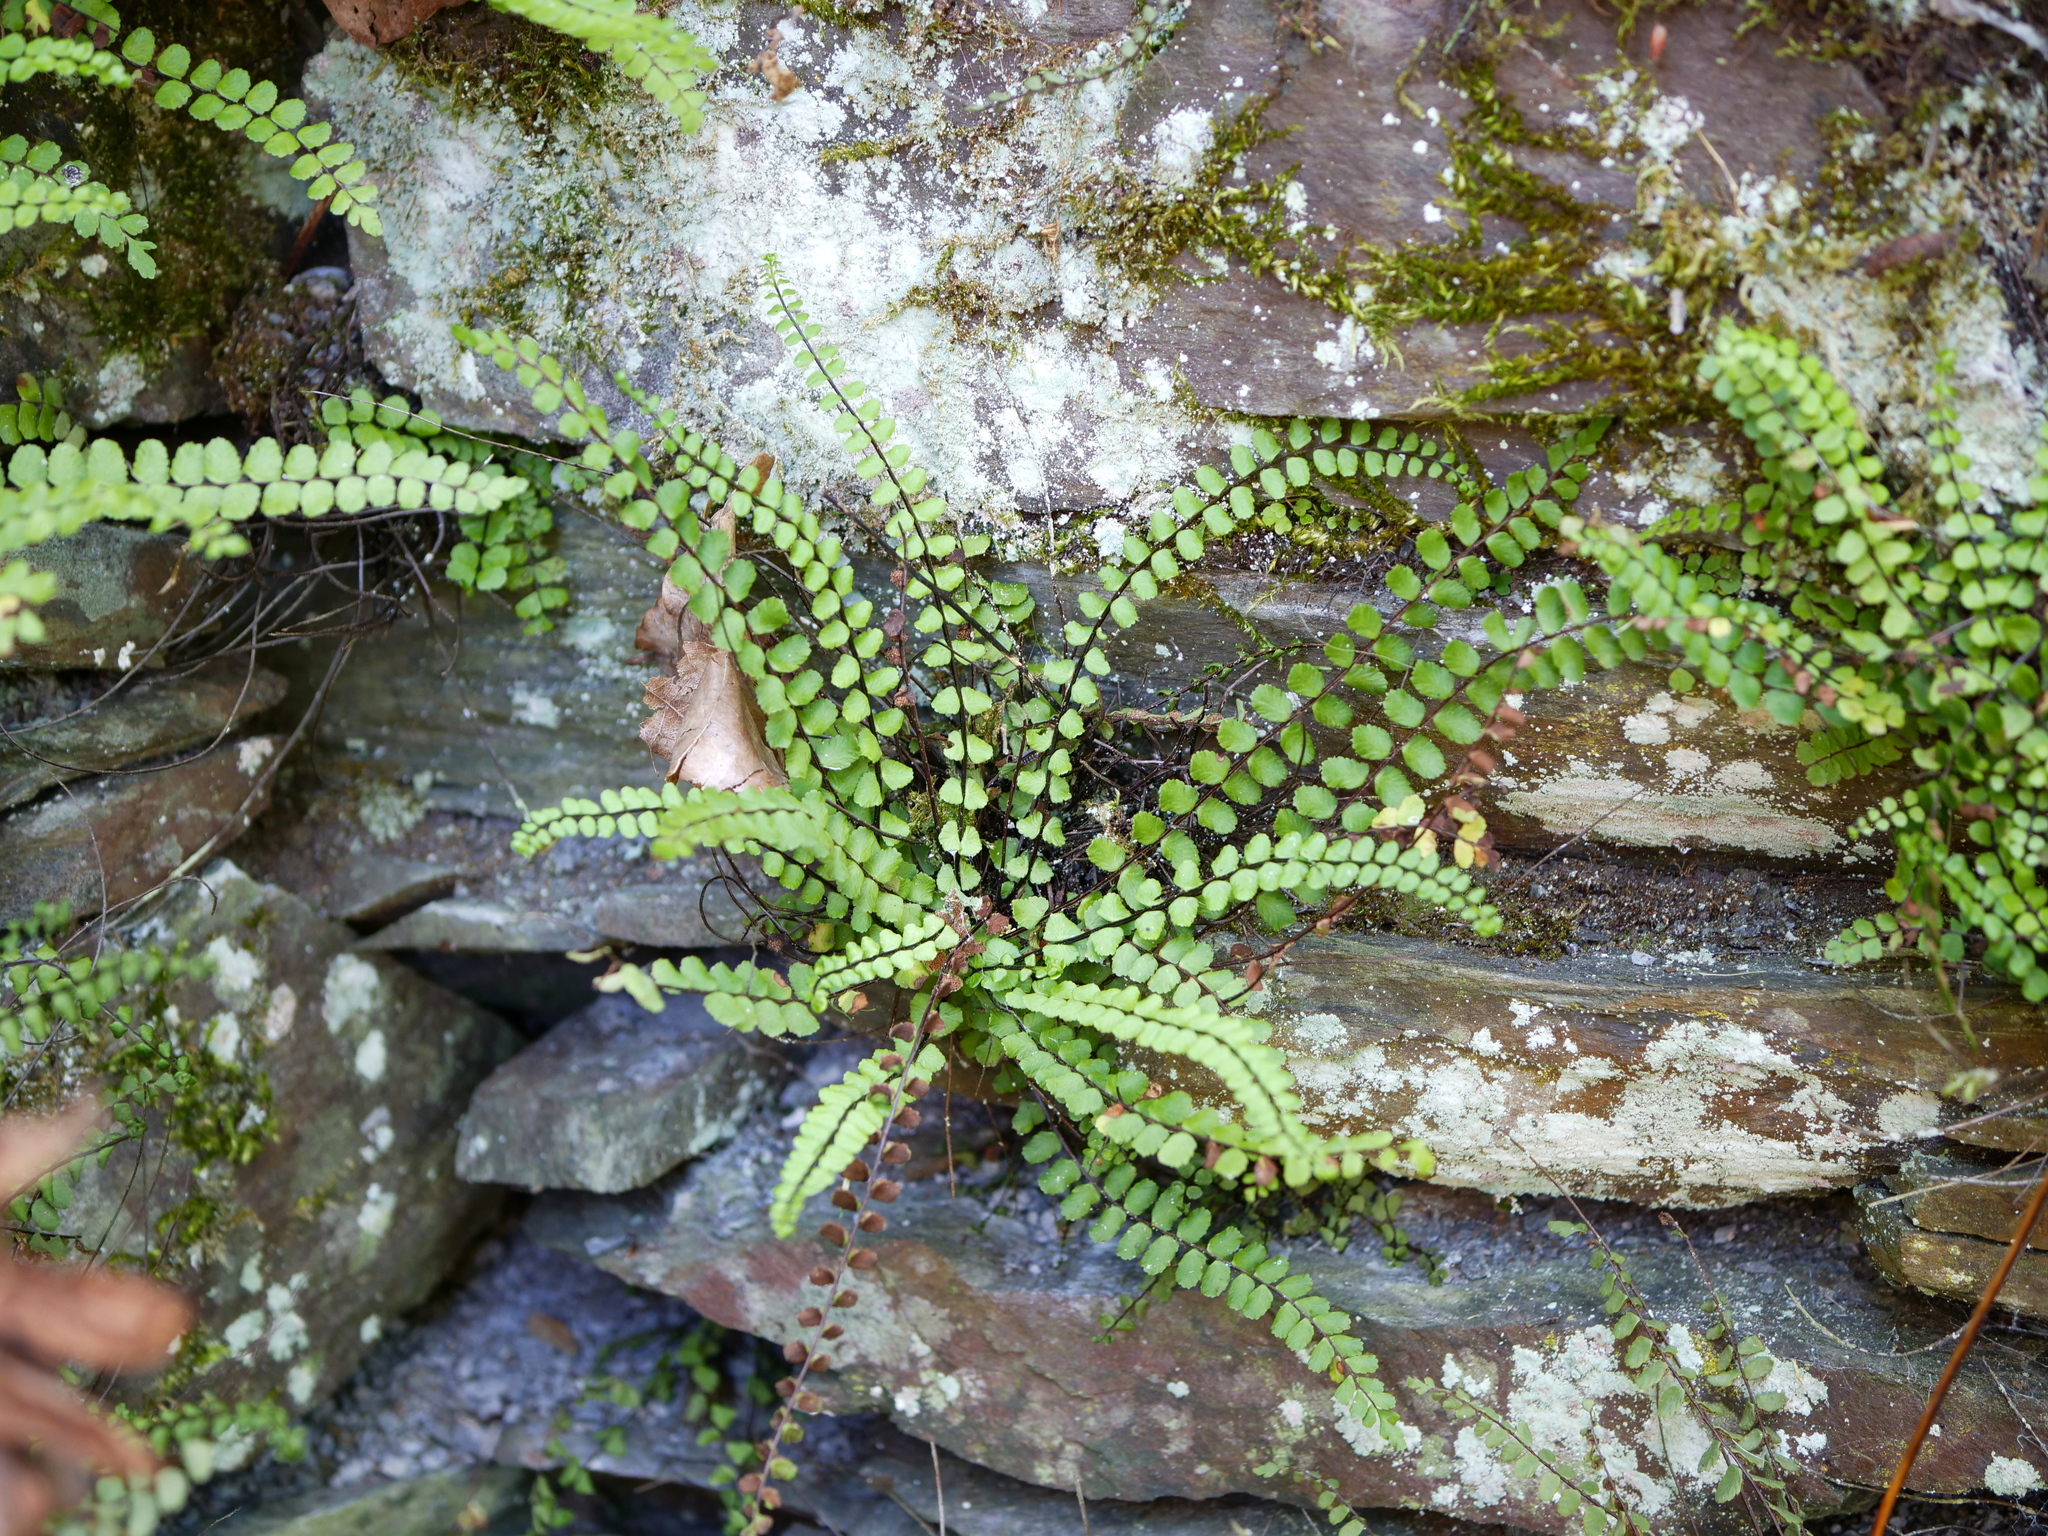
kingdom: Plantae
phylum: Tracheophyta
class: Polypodiopsida
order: Polypodiales
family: Aspleniaceae
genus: Asplenium
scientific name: Asplenium trichomanes
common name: Maidenhair spleenwort
